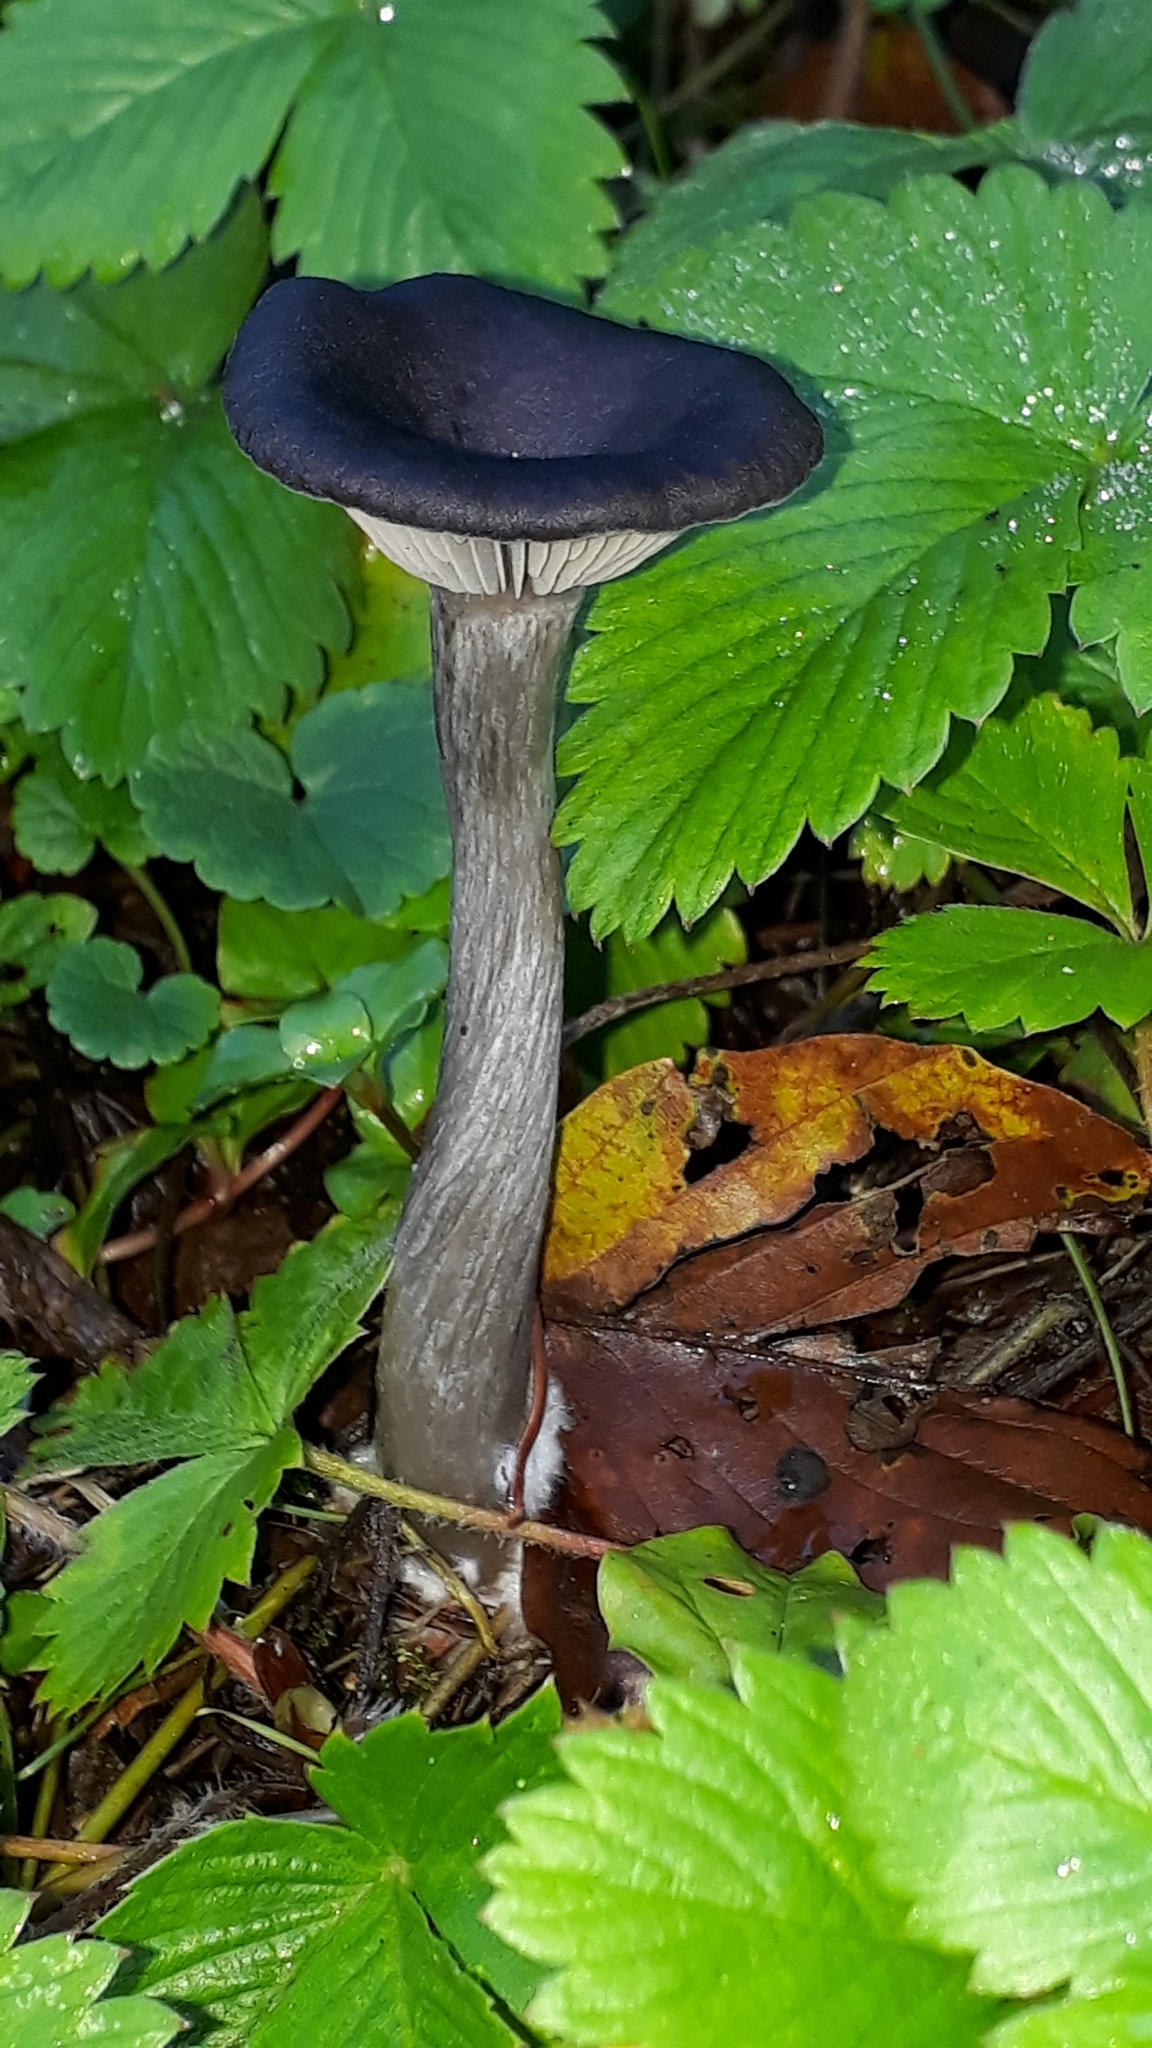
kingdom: Fungi
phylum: Basidiomycota
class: Agaricomycetes
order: Agaricales
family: Pseudoclitocybaceae
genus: Pseudoclitocybe
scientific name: Pseudoclitocybe cyathiformis
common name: Goblet
